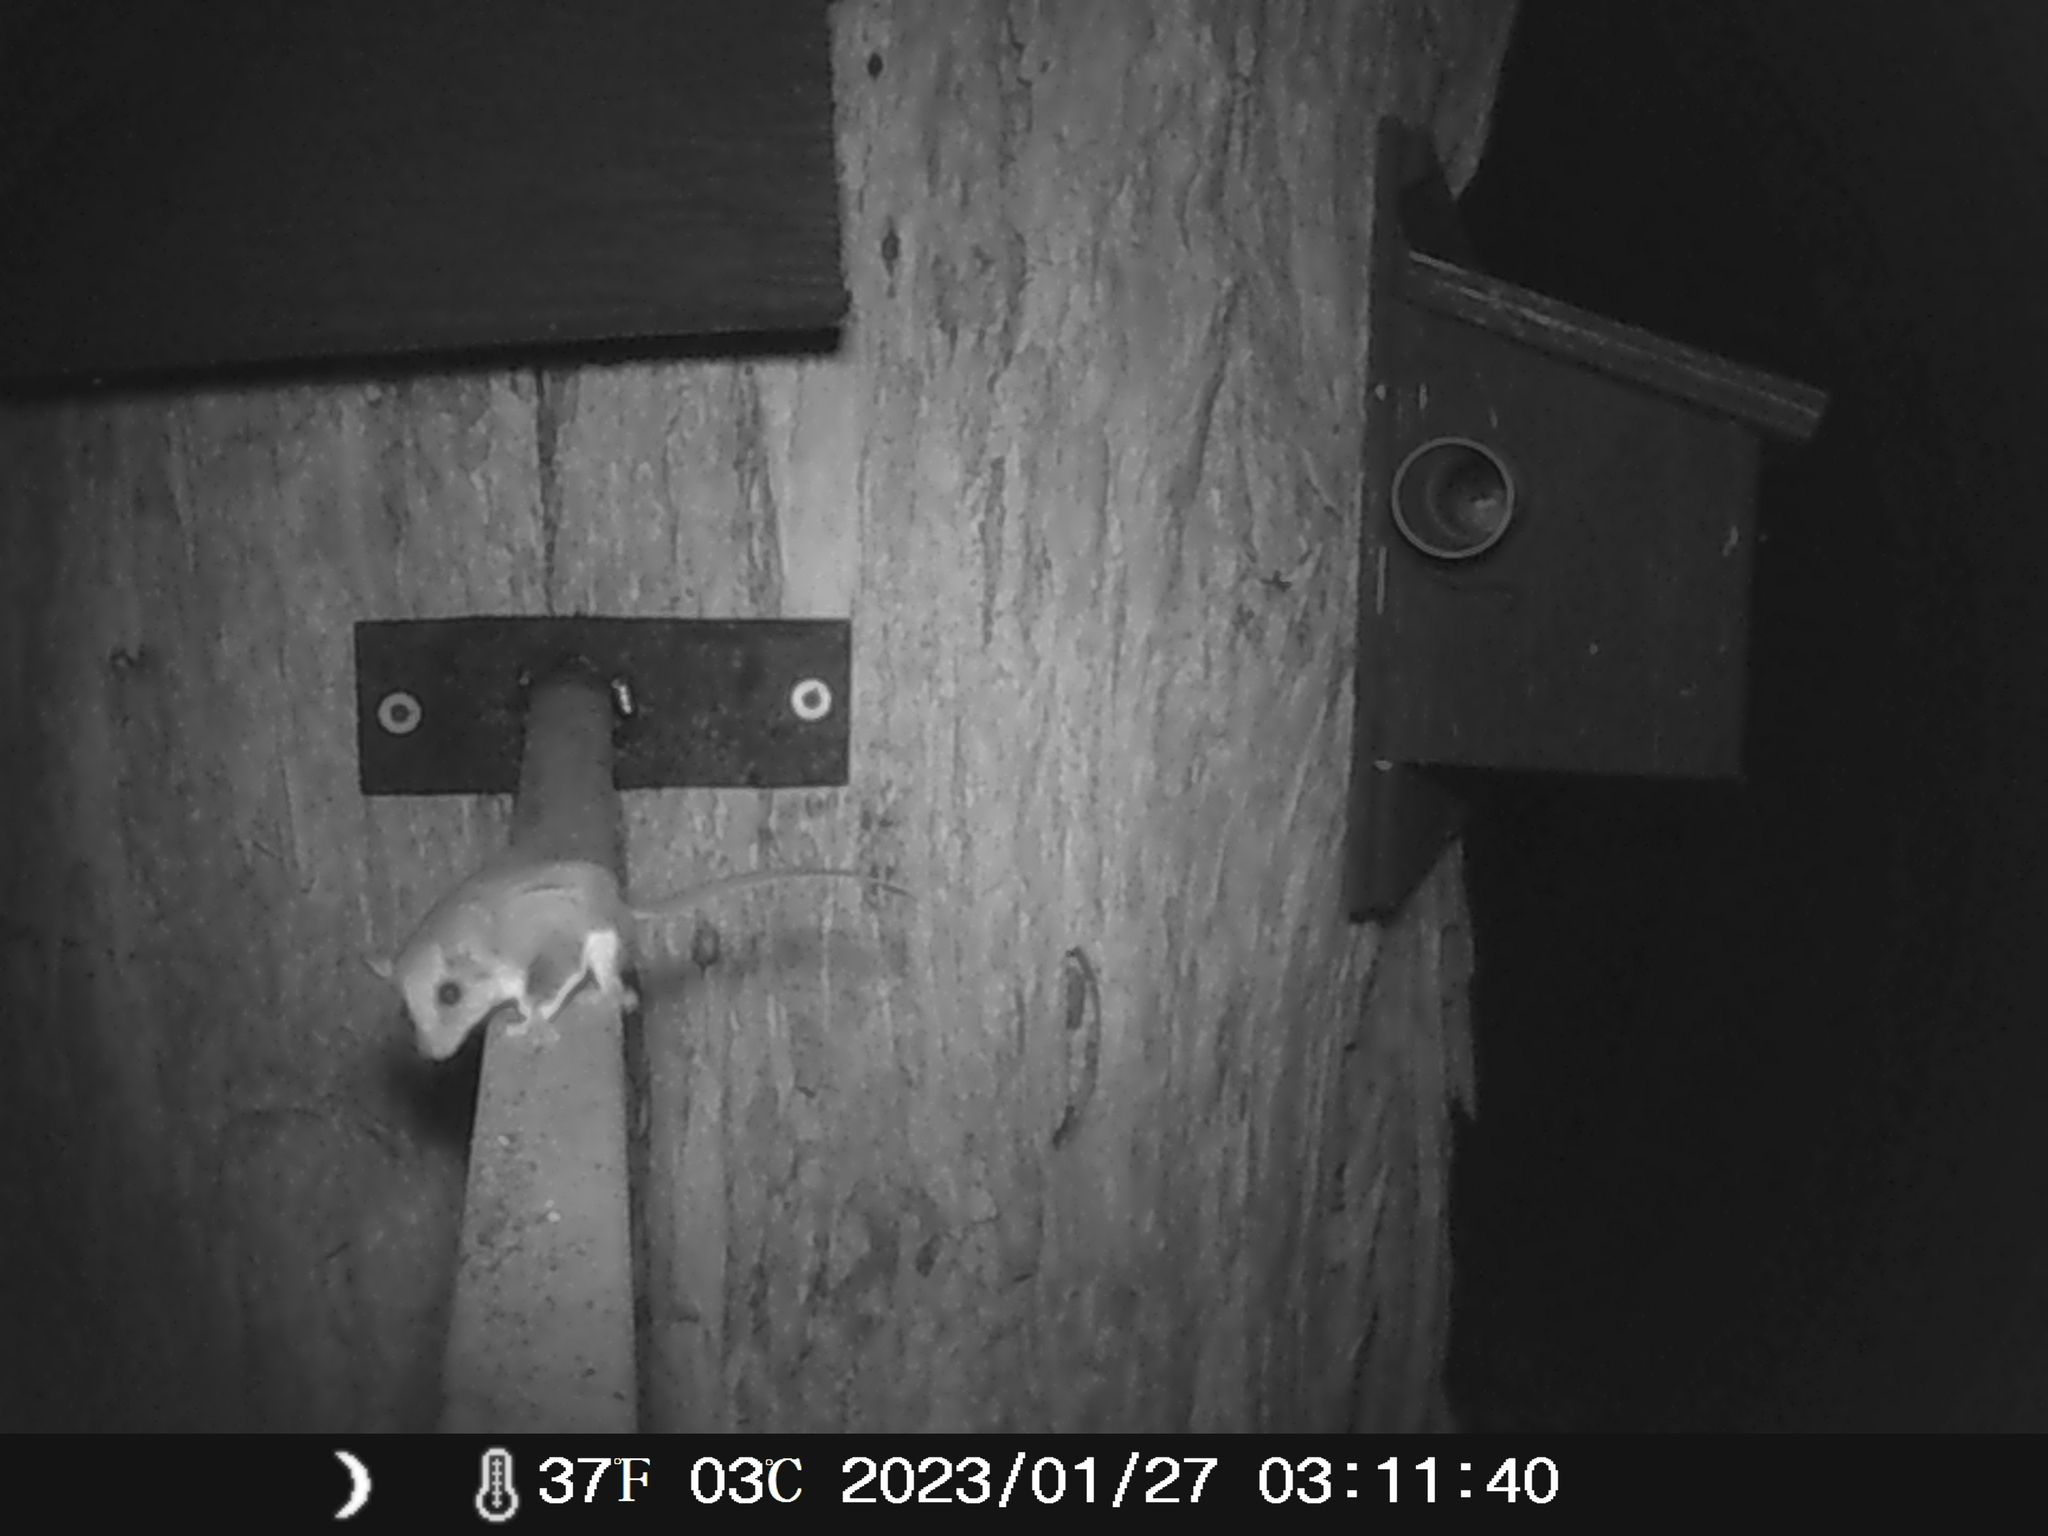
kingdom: Animalia
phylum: Chordata
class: Mammalia
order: Diprotodontia
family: Acrobatidae
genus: Acrobates
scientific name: Acrobates pygmaeus
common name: Feathertail glider
